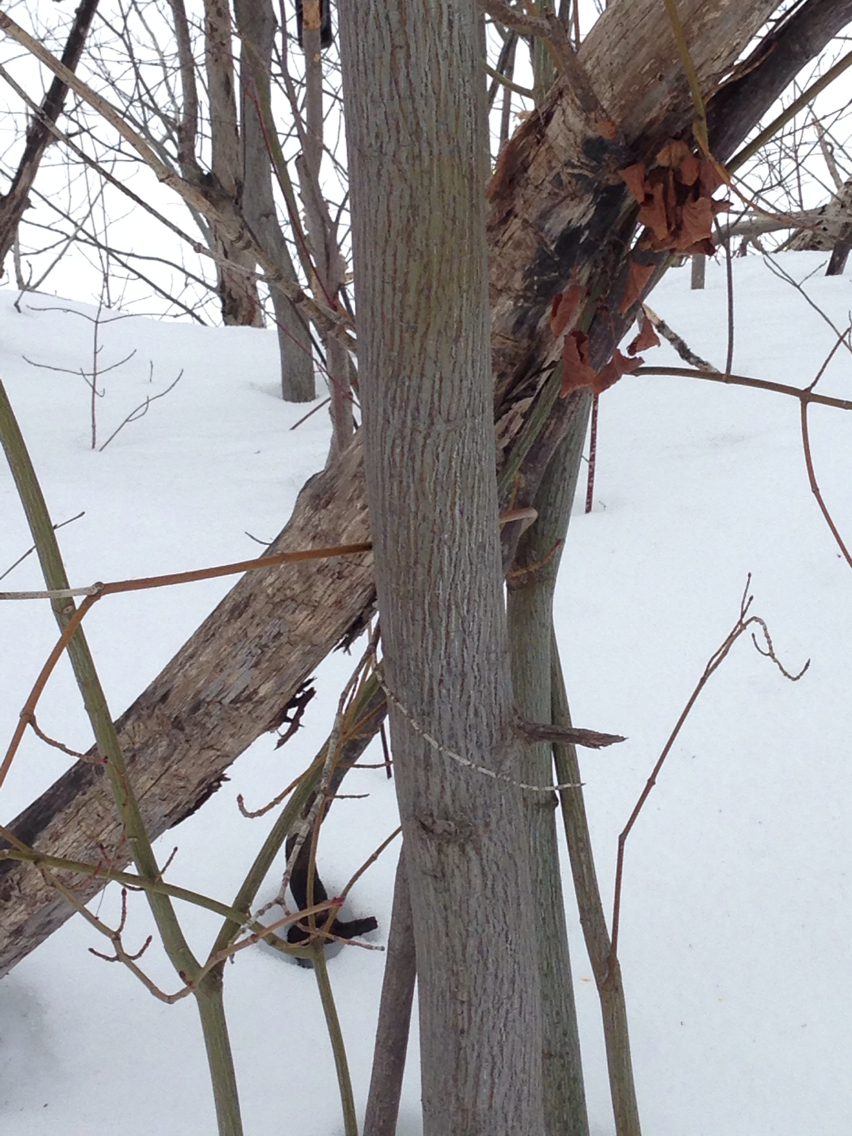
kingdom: Plantae
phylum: Tracheophyta
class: Magnoliopsida
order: Sapindales
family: Sapindaceae
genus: Acer
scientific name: Acer pensylvanicum
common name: Moosewood
